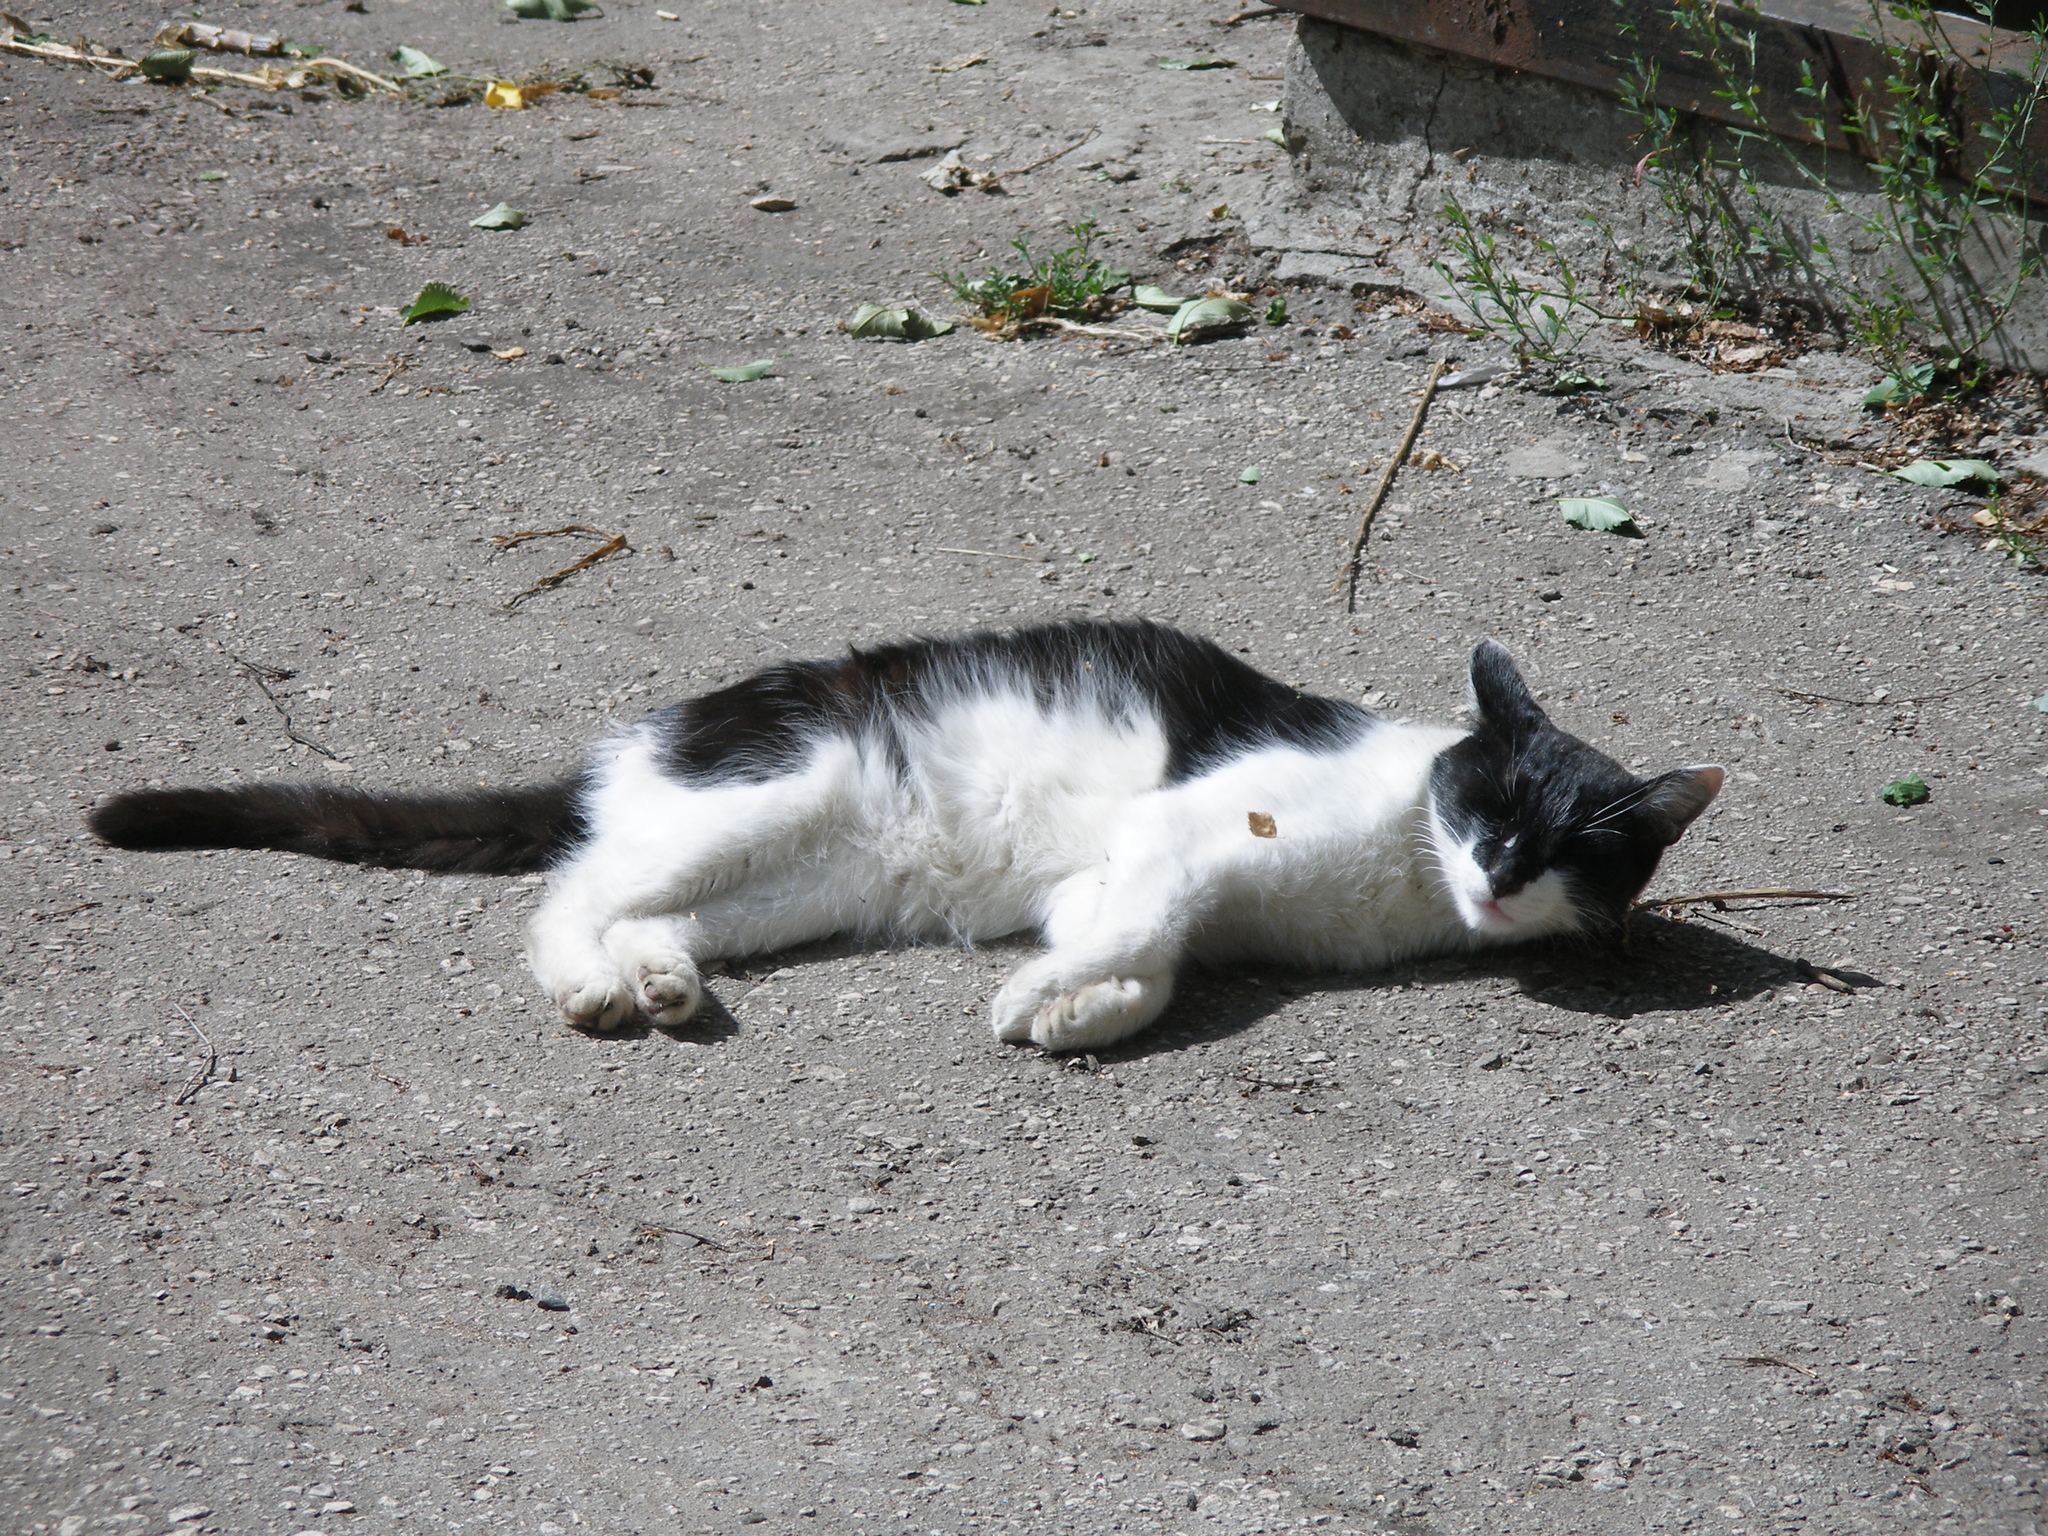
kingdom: Animalia
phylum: Chordata
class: Mammalia
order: Carnivora
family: Felidae
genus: Felis
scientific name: Felis catus
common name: Domestic cat
